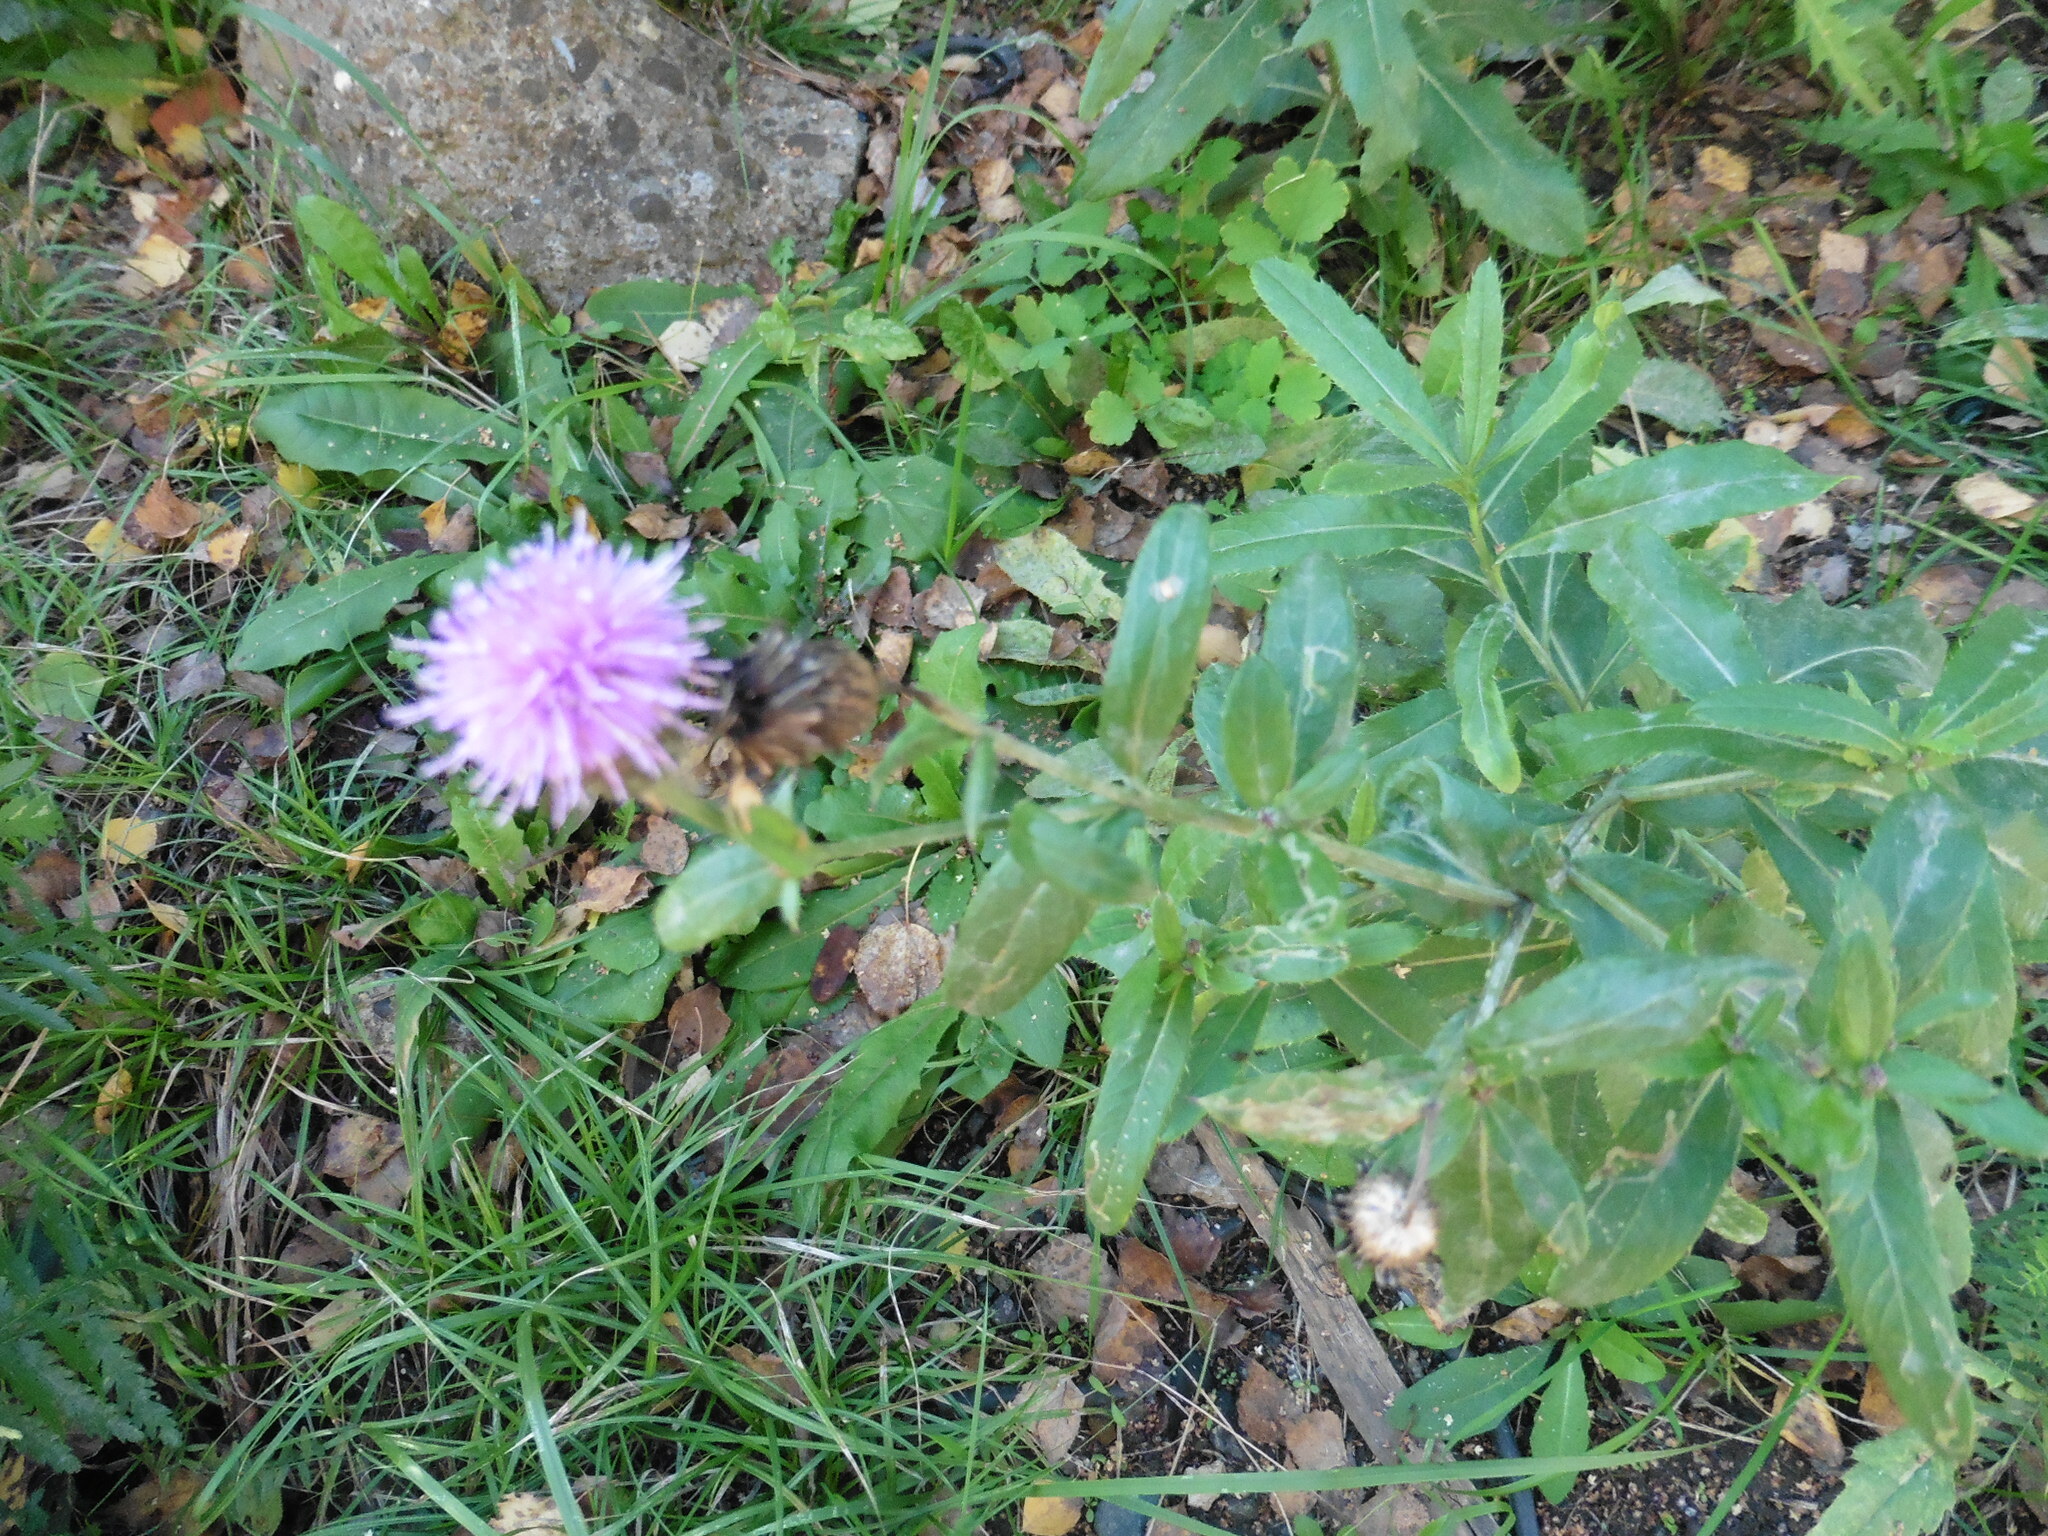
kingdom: Plantae
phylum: Tracheophyta
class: Magnoliopsida
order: Asterales
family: Asteraceae
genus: Cirsium
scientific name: Cirsium arvense
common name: Creeping thistle
